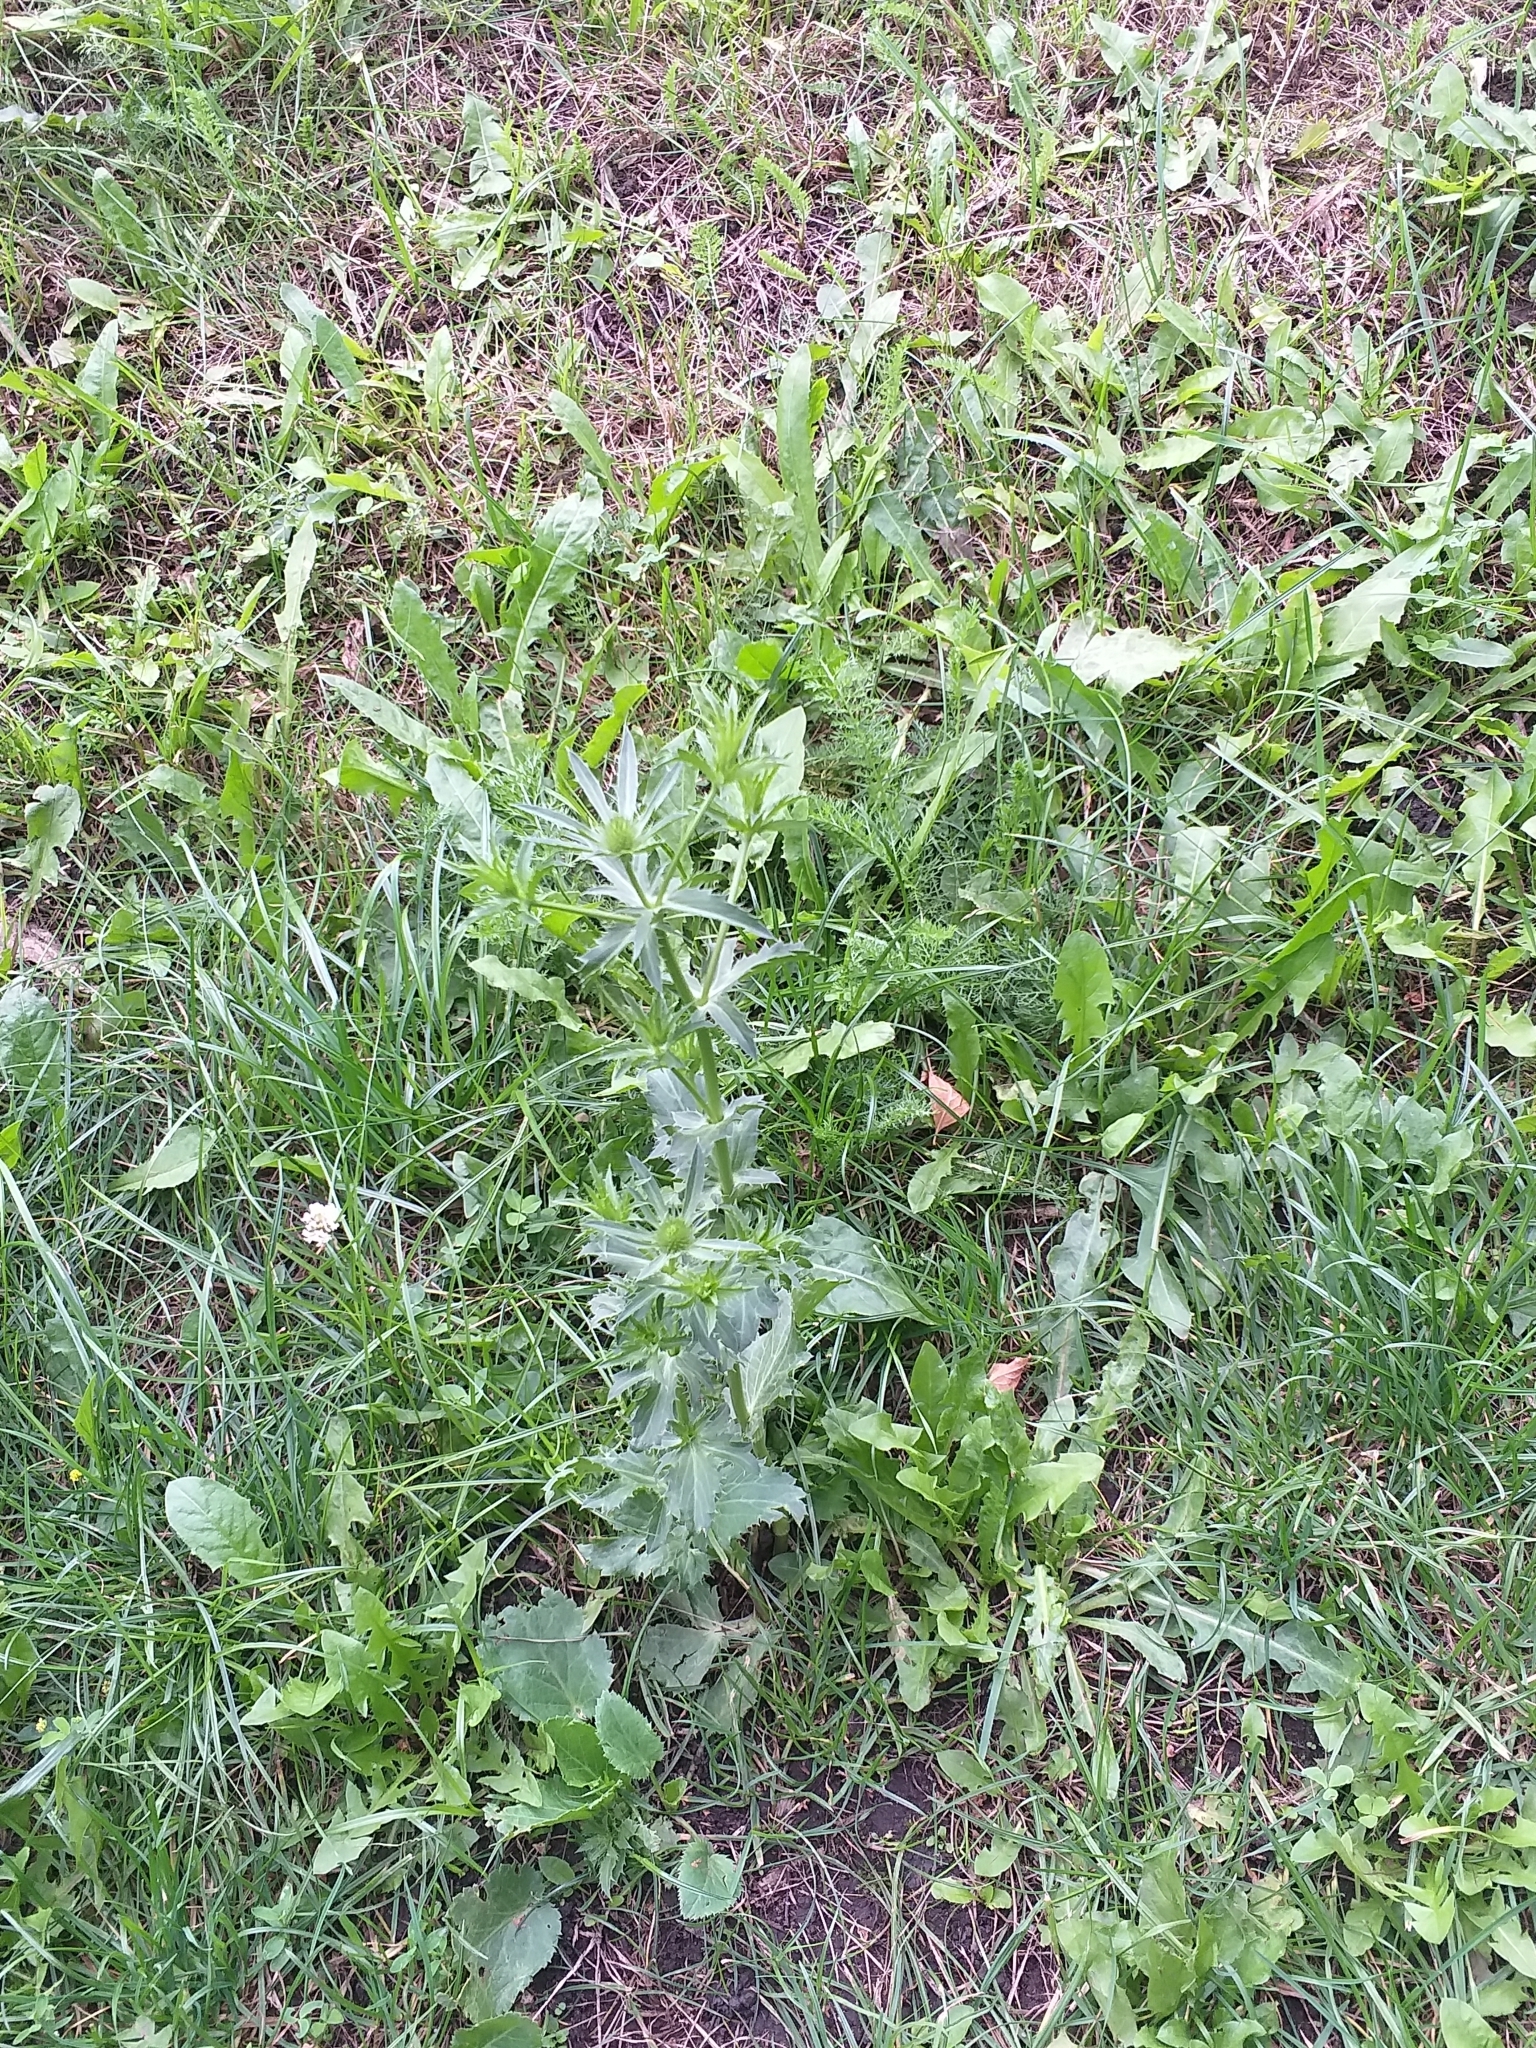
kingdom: Plantae
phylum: Tracheophyta
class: Magnoliopsida
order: Apiales
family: Apiaceae
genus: Eryngium
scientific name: Eryngium planum
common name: Blue eryngo
